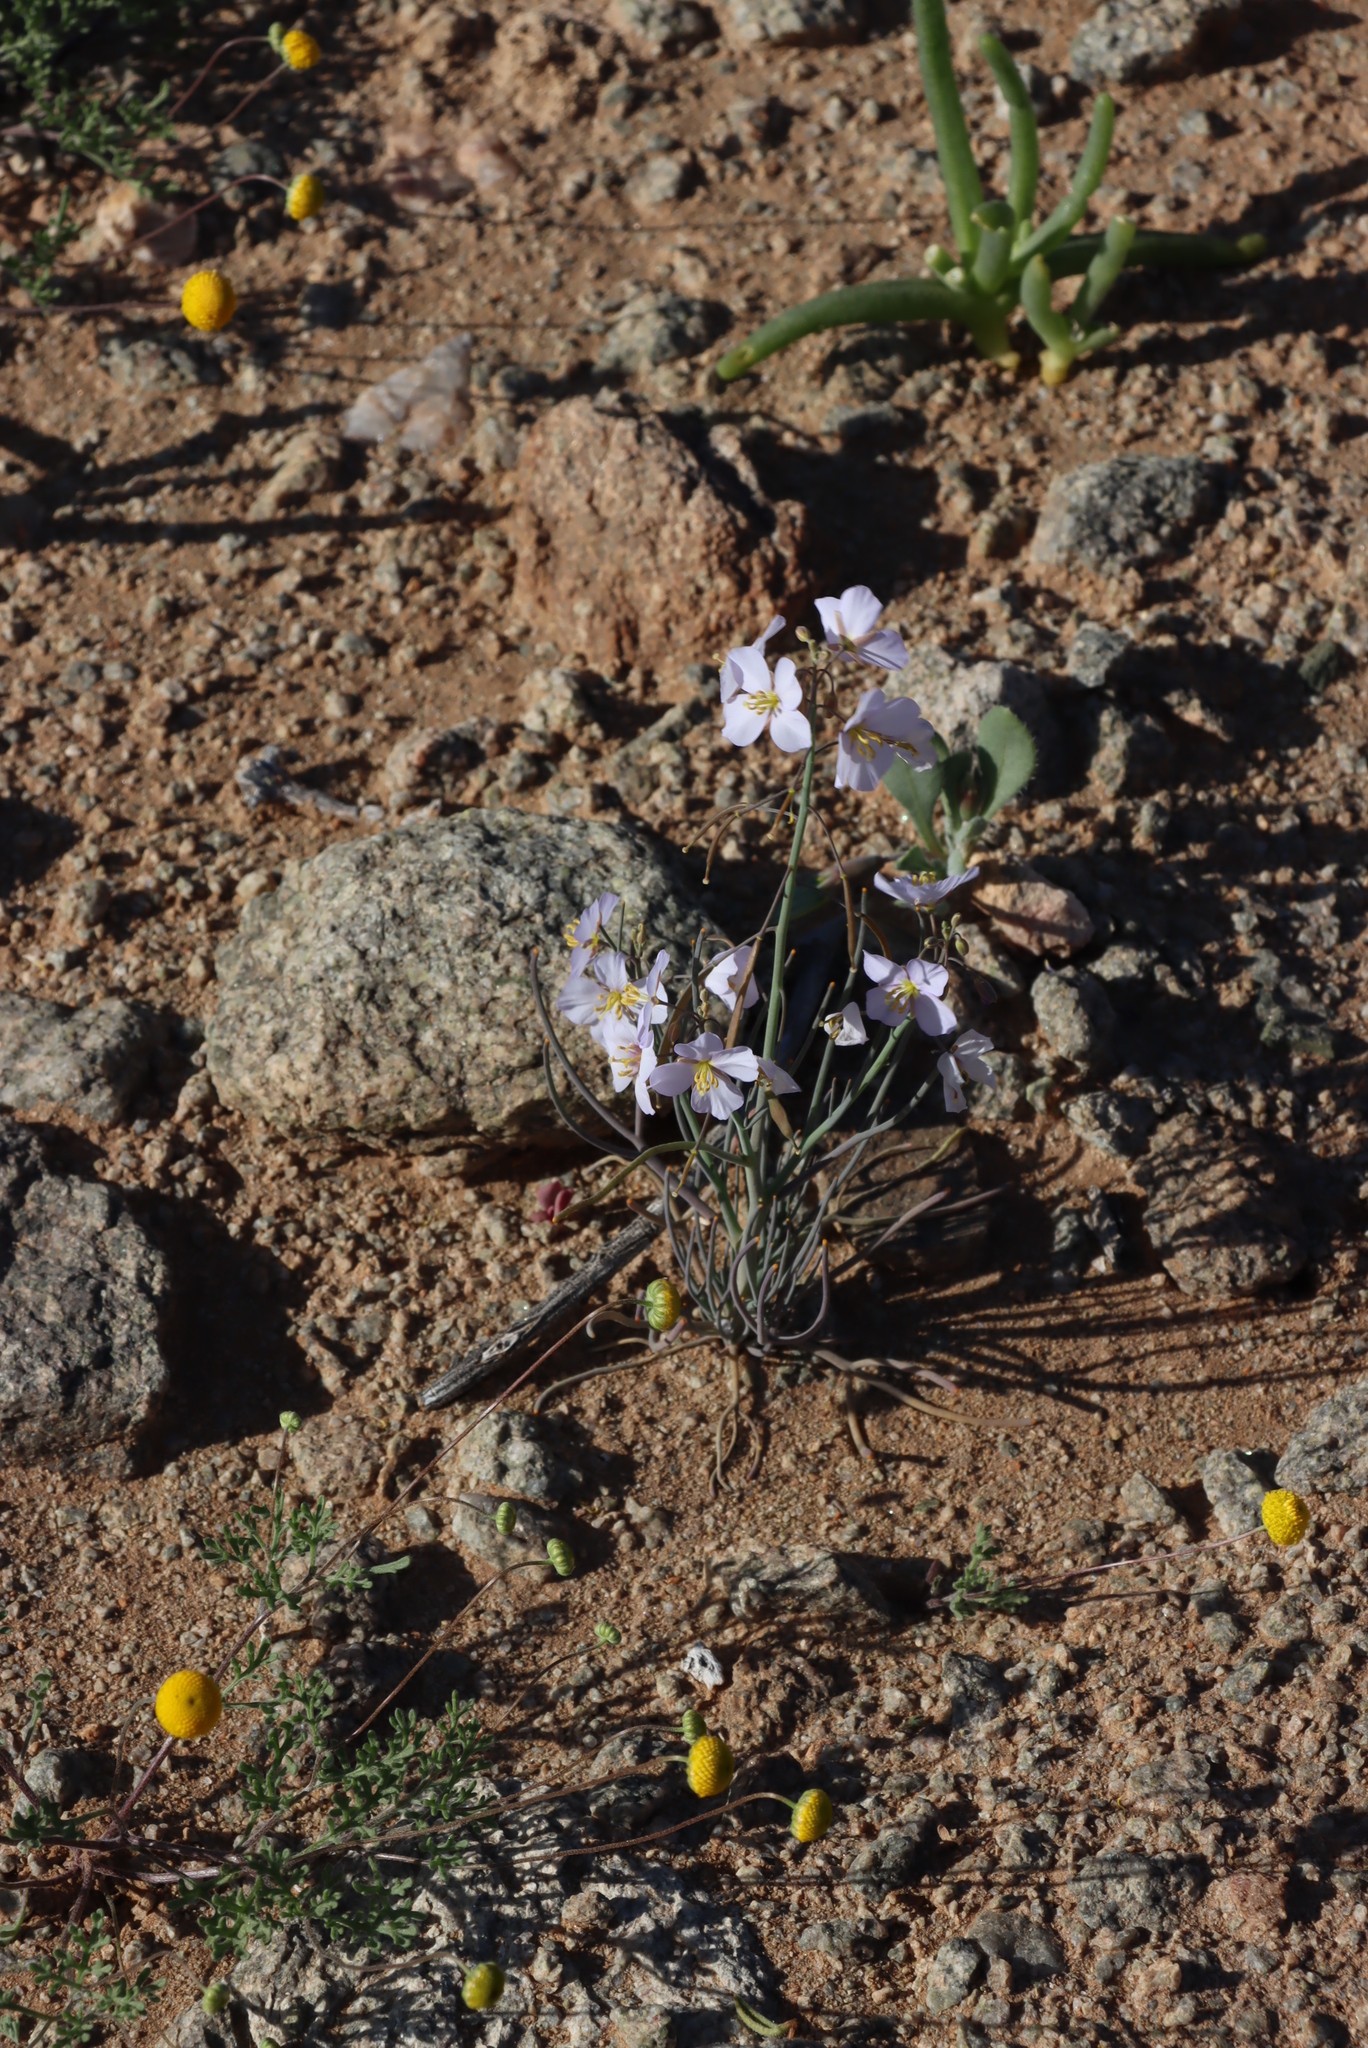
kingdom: Plantae
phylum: Tracheophyta
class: Magnoliopsida
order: Brassicales
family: Brassicaceae
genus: Heliophila
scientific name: Heliophila trifurca
